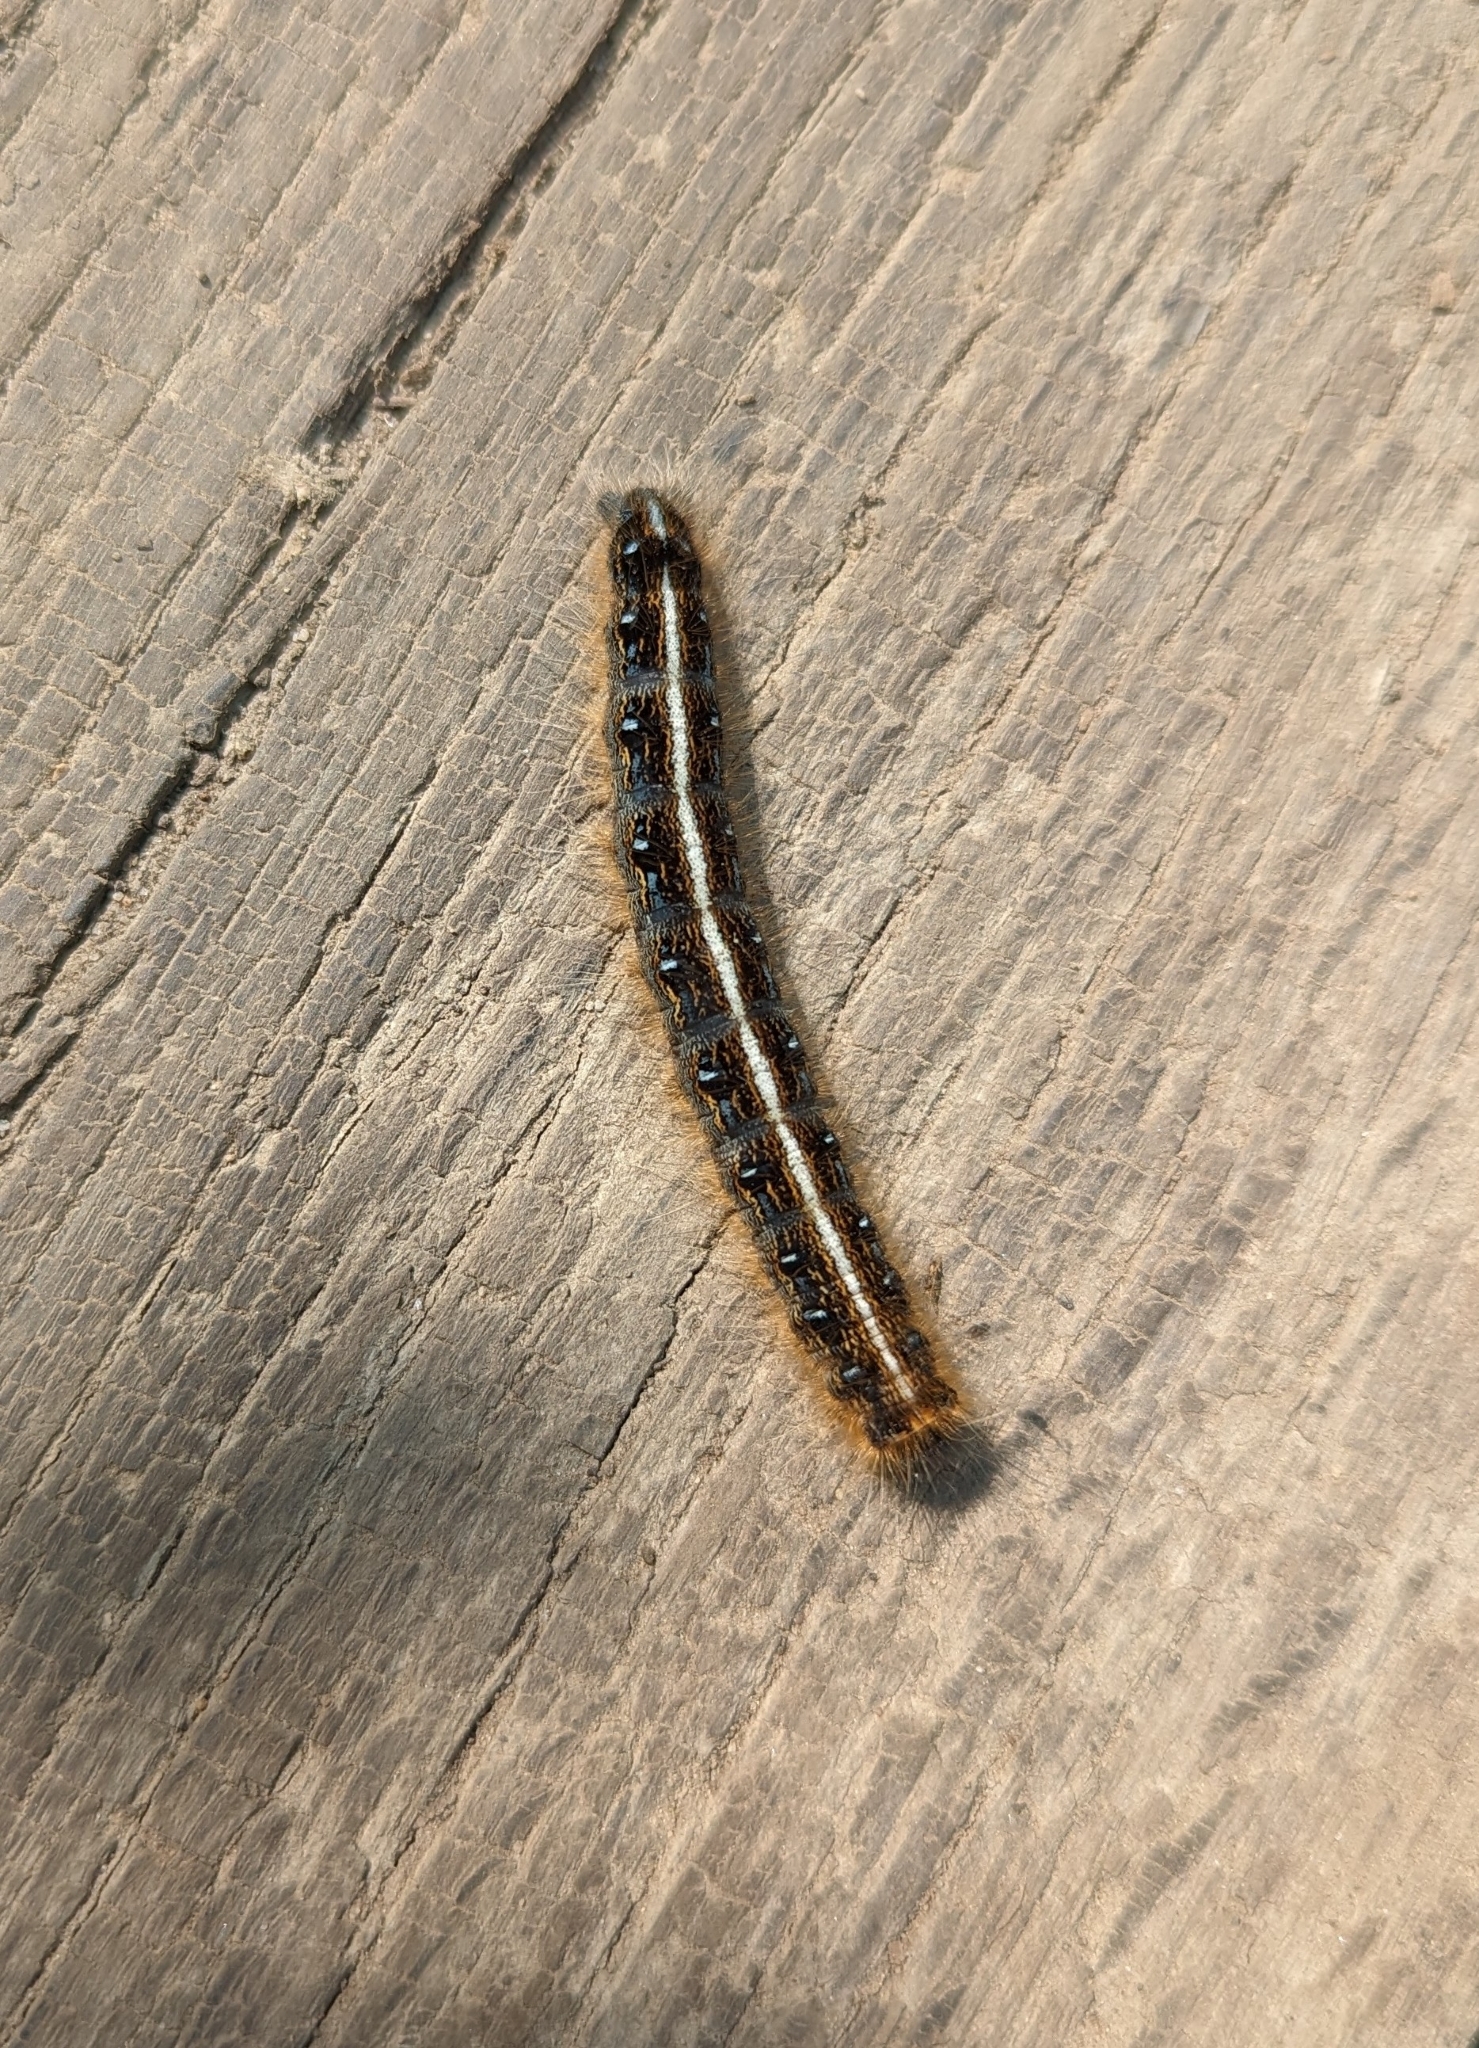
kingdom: Animalia
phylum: Arthropoda
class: Insecta
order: Lepidoptera
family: Lasiocampidae
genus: Malacosoma
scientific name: Malacosoma americana
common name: Eastern tent caterpillar moth
